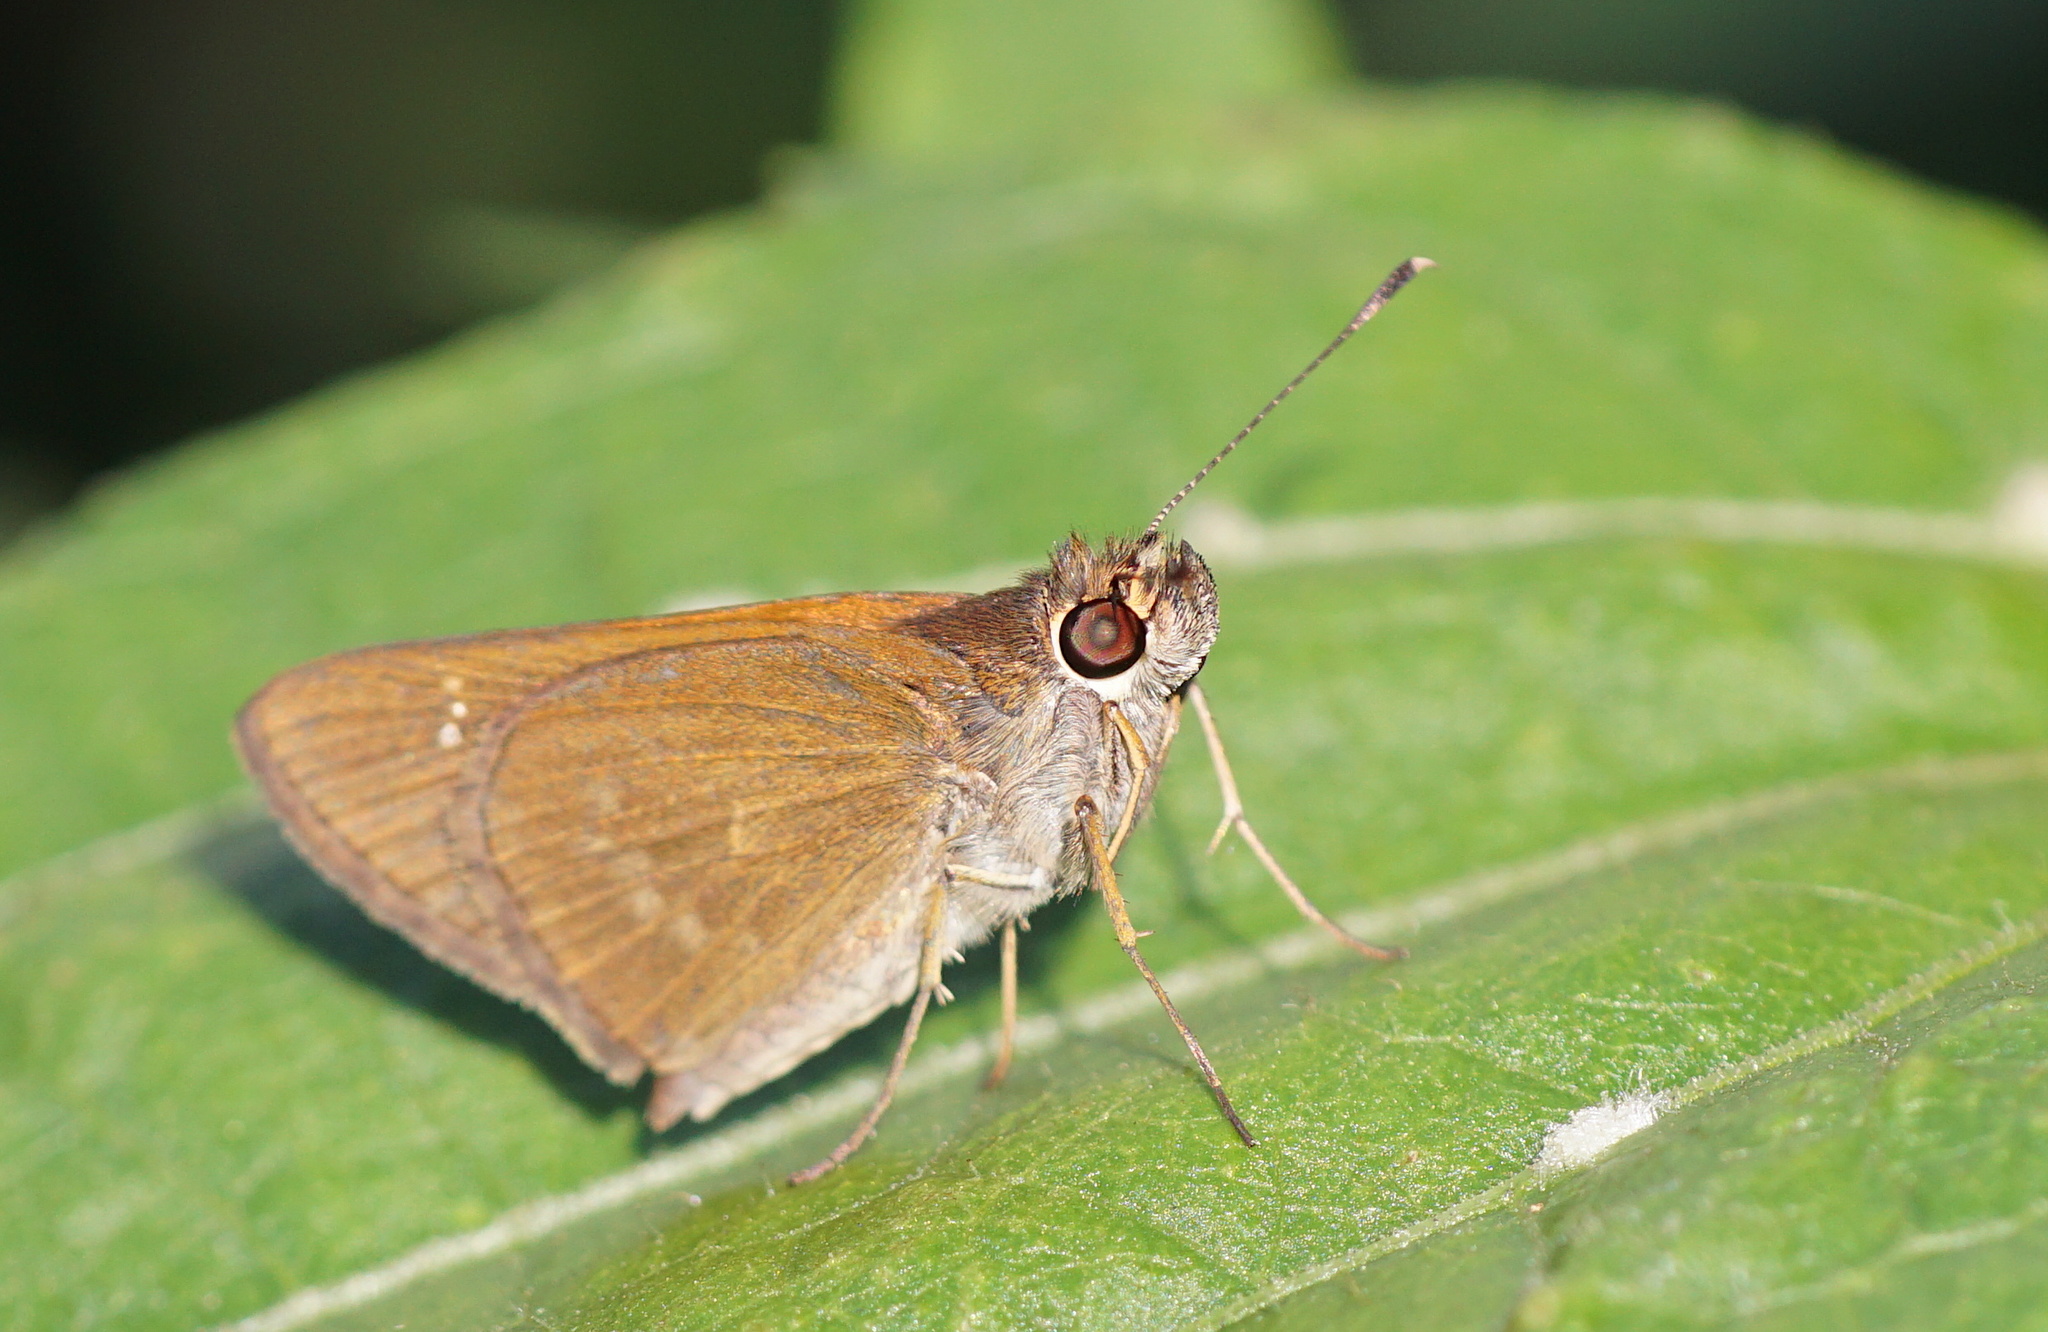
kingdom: Animalia
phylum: Arthropoda
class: Insecta
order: Lepidoptera
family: Hesperiidae
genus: Cymaenes
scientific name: Cymaenes tripunctus
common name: Dingy dotted skipper
